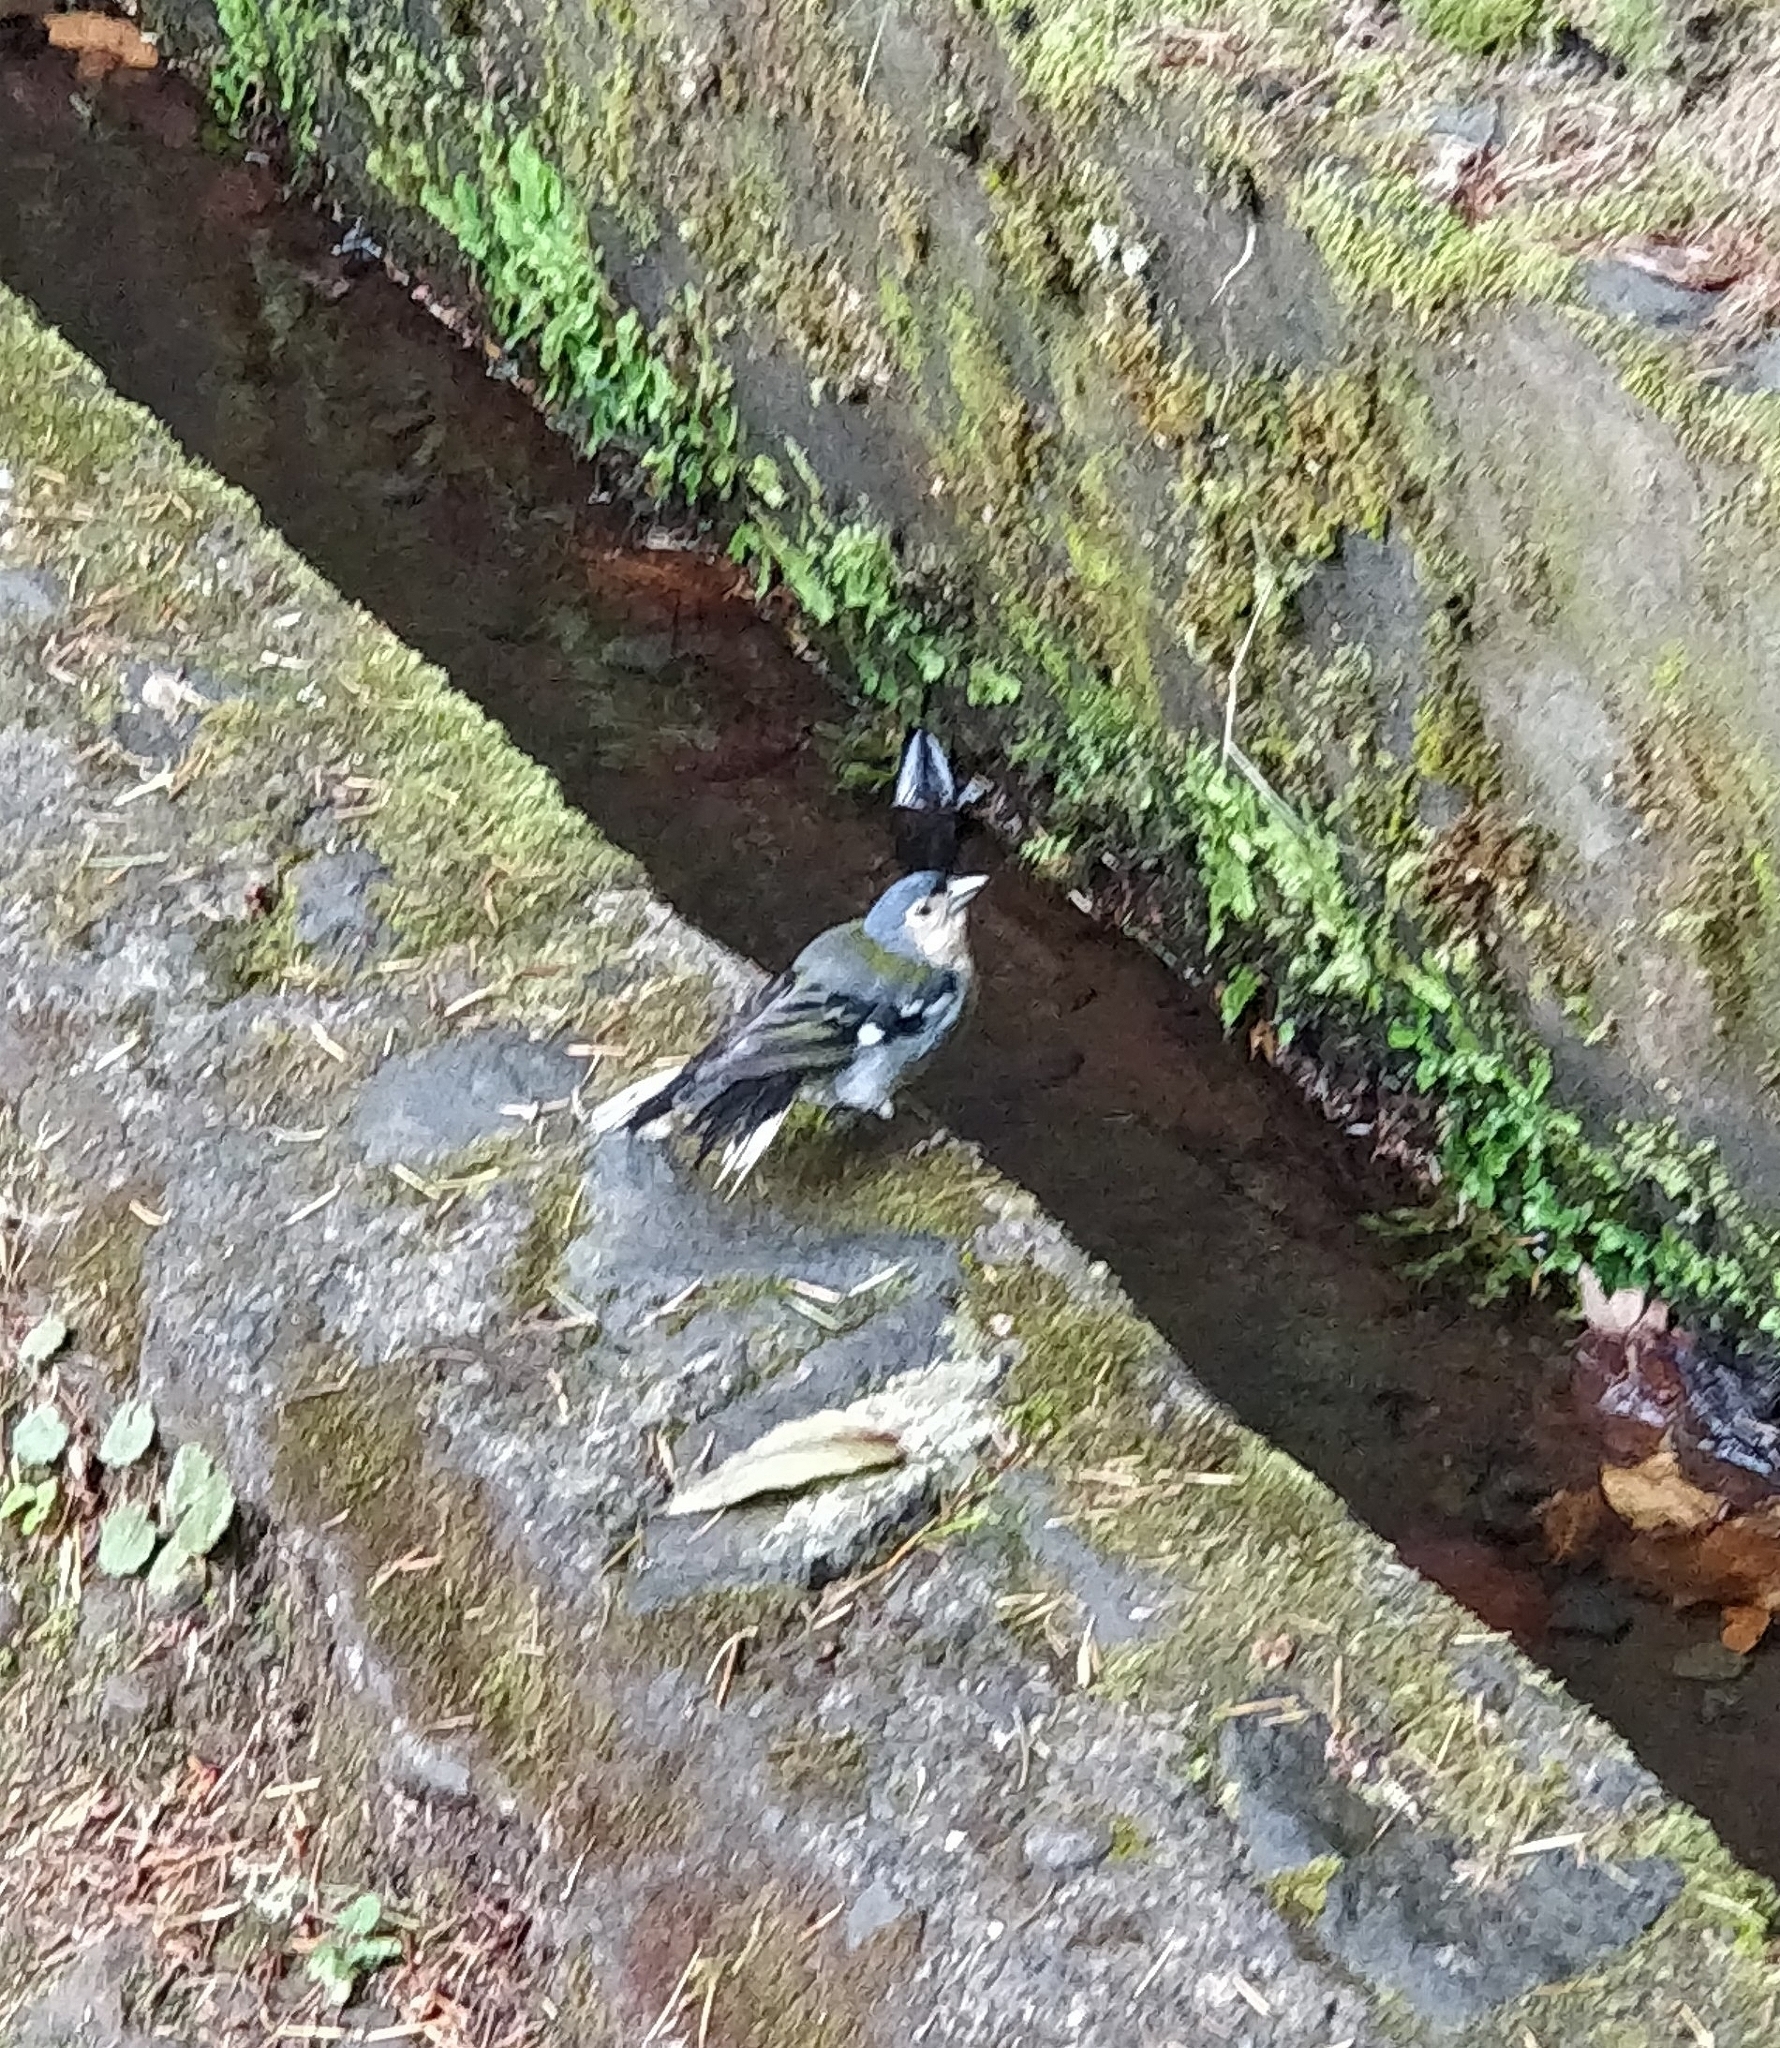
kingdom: Animalia
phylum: Chordata
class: Aves
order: Passeriformes
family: Fringillidae
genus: Fringilla
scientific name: Fringilla maderensis
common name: Madeira chaffinch
